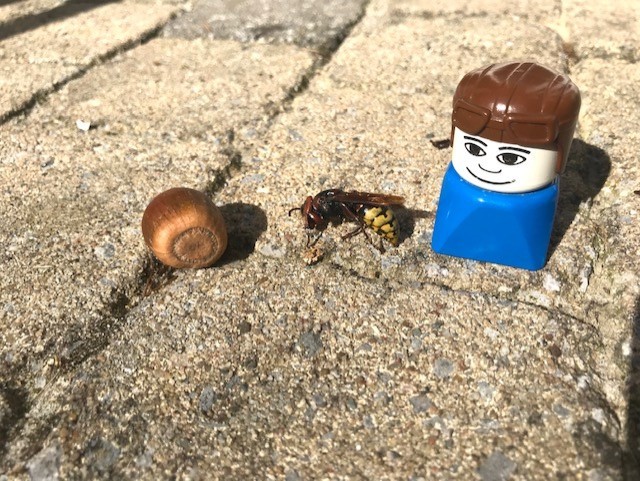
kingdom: Animalia
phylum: Arthropoda
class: Insecta
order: Hymenoptera
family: Vespidae
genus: Vespa
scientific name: Vespa crabro
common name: Hornet
